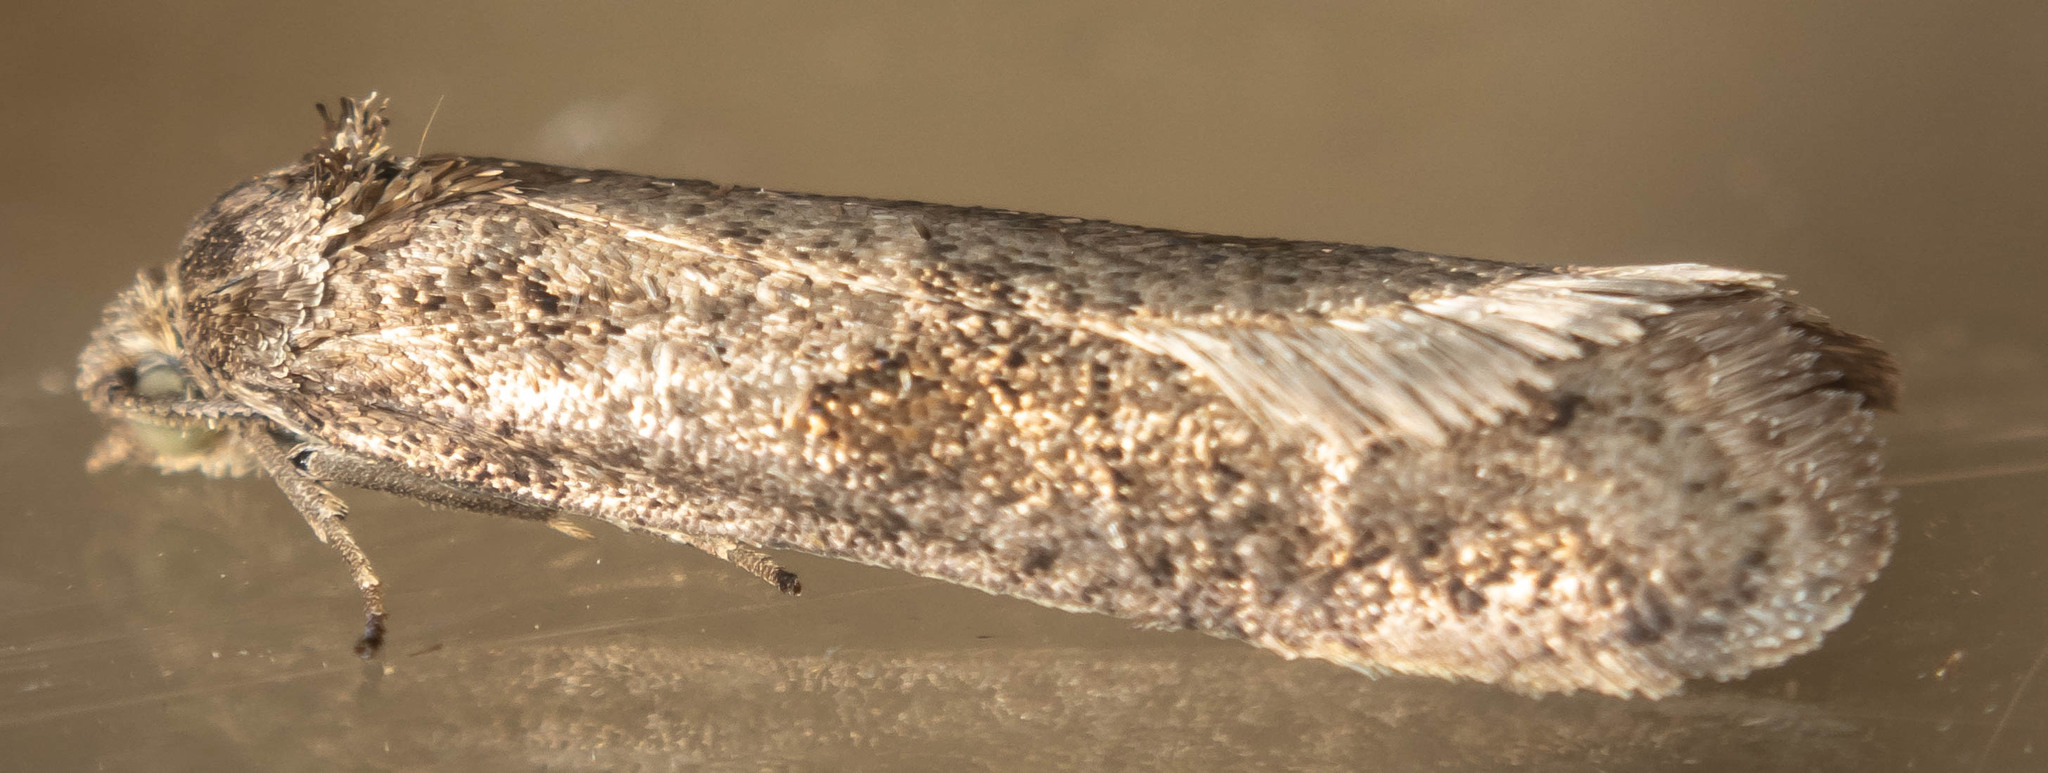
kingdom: Animalia
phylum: Arthropoda
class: Insecta
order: Lepidoptera
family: Tortricidae
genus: Tortricodes
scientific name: Tortricodes alternella
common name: Winter shade
